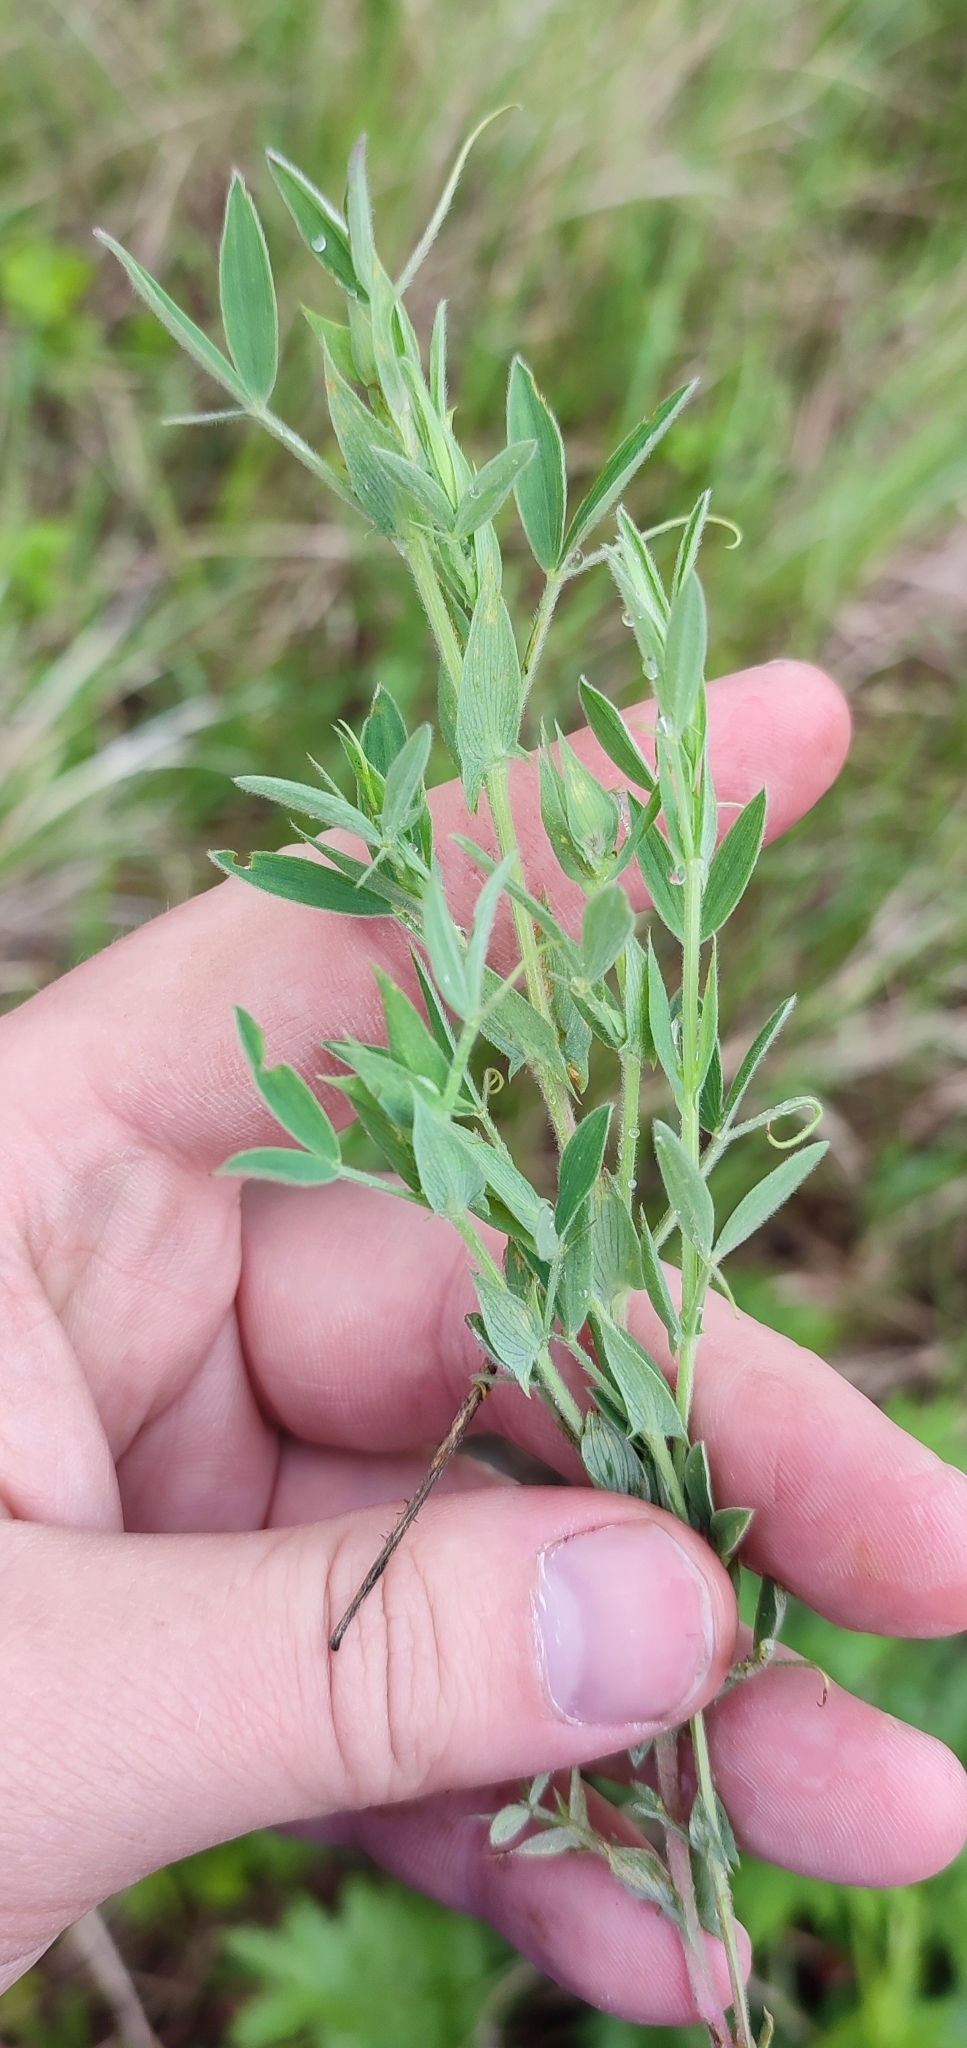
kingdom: Plantae
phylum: Tracheophyta
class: Magnoliopsida
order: Fabales
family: Fabaceae
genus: Lathyrus
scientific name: Lathyrus pratensis
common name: Meadow vetchling
